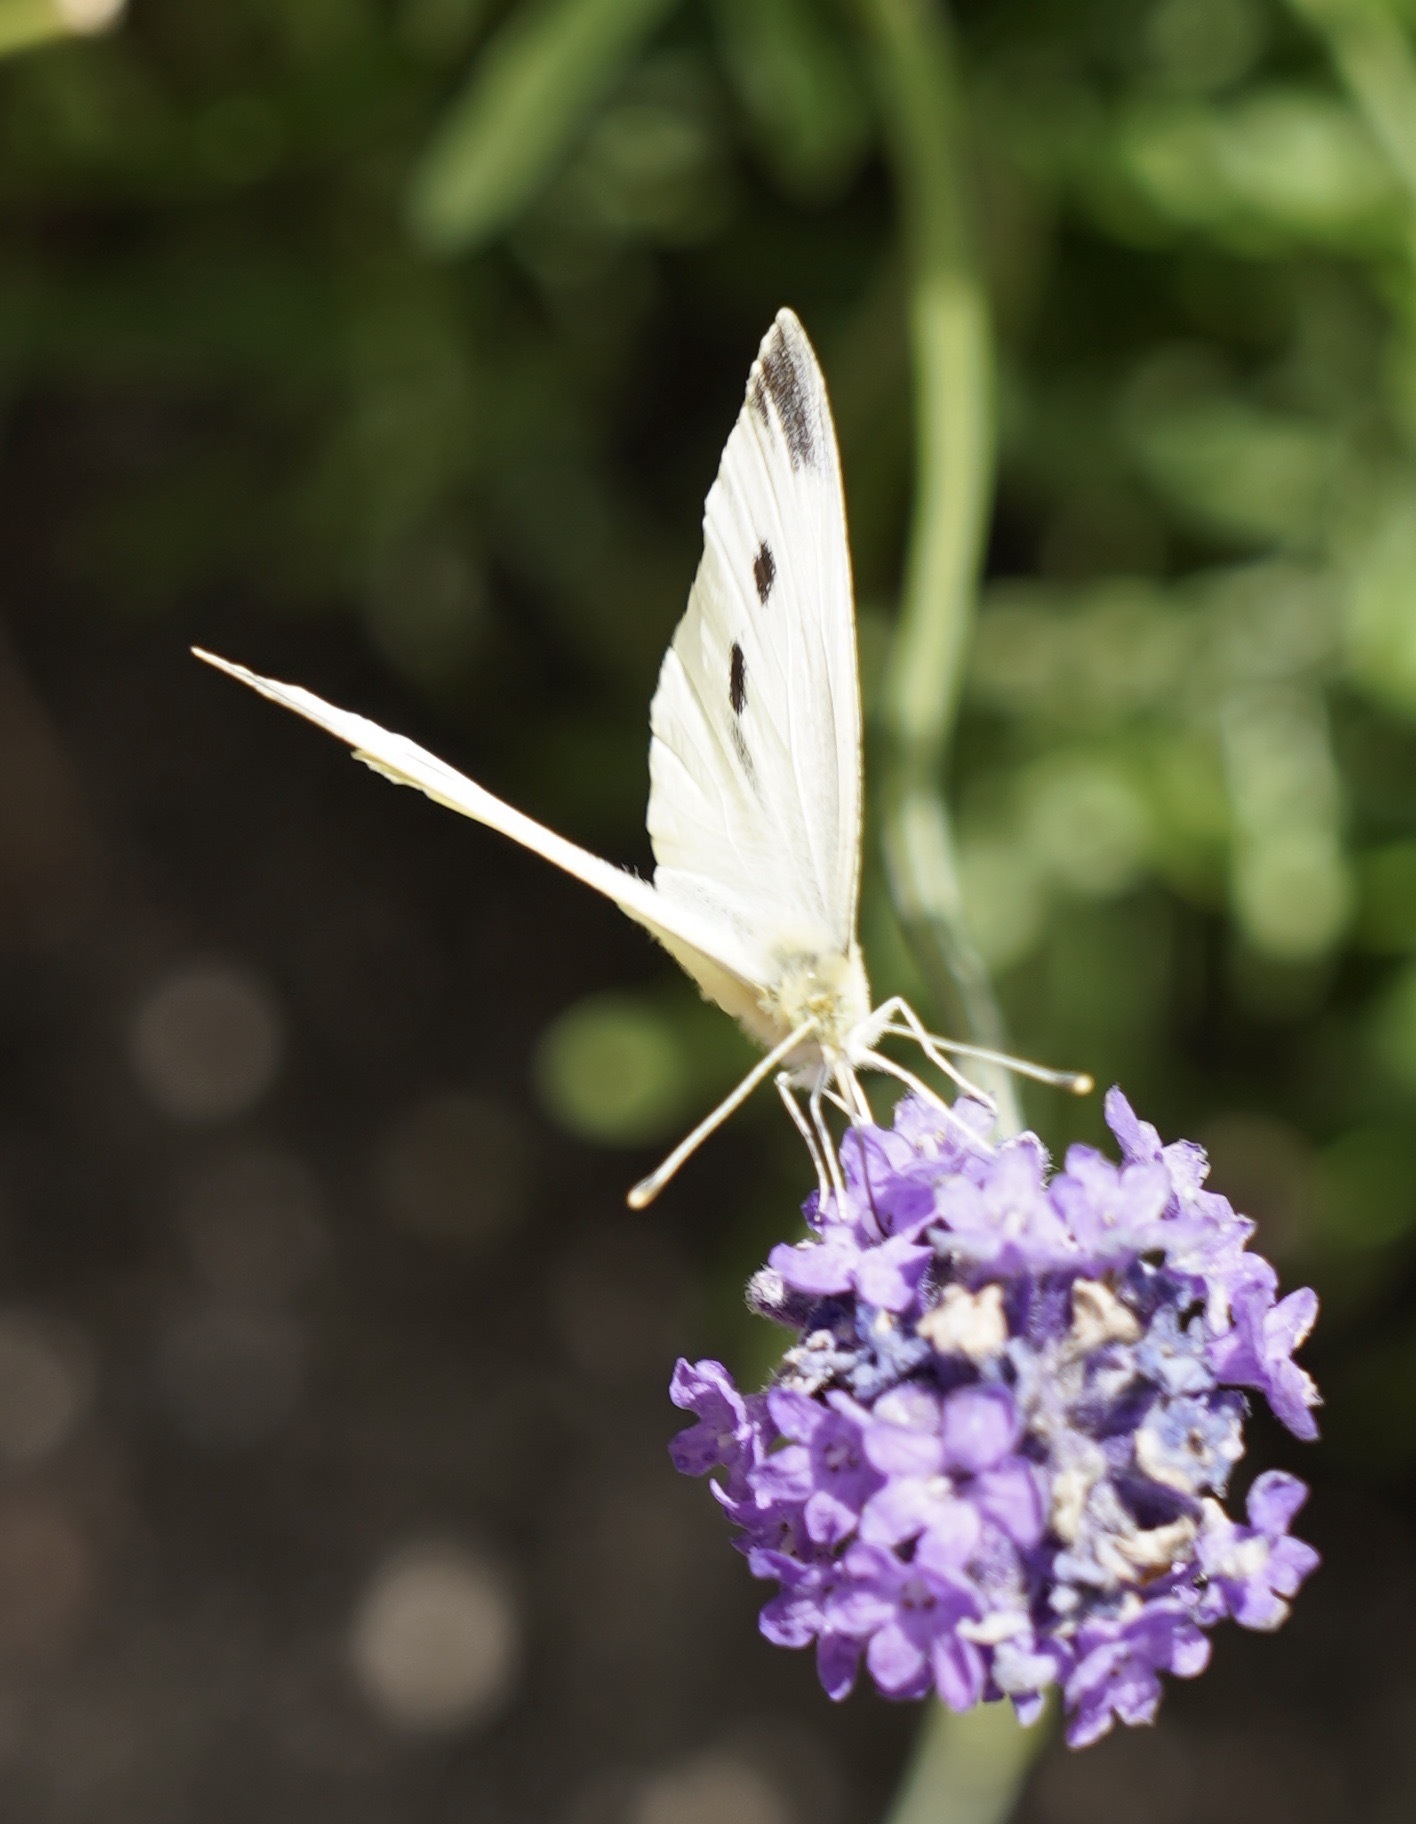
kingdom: Animalia
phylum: Arthropoda
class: Insecta
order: Lepidoptera
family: Pieridae
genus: Pieris
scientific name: Pieris rapae
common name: Small white
